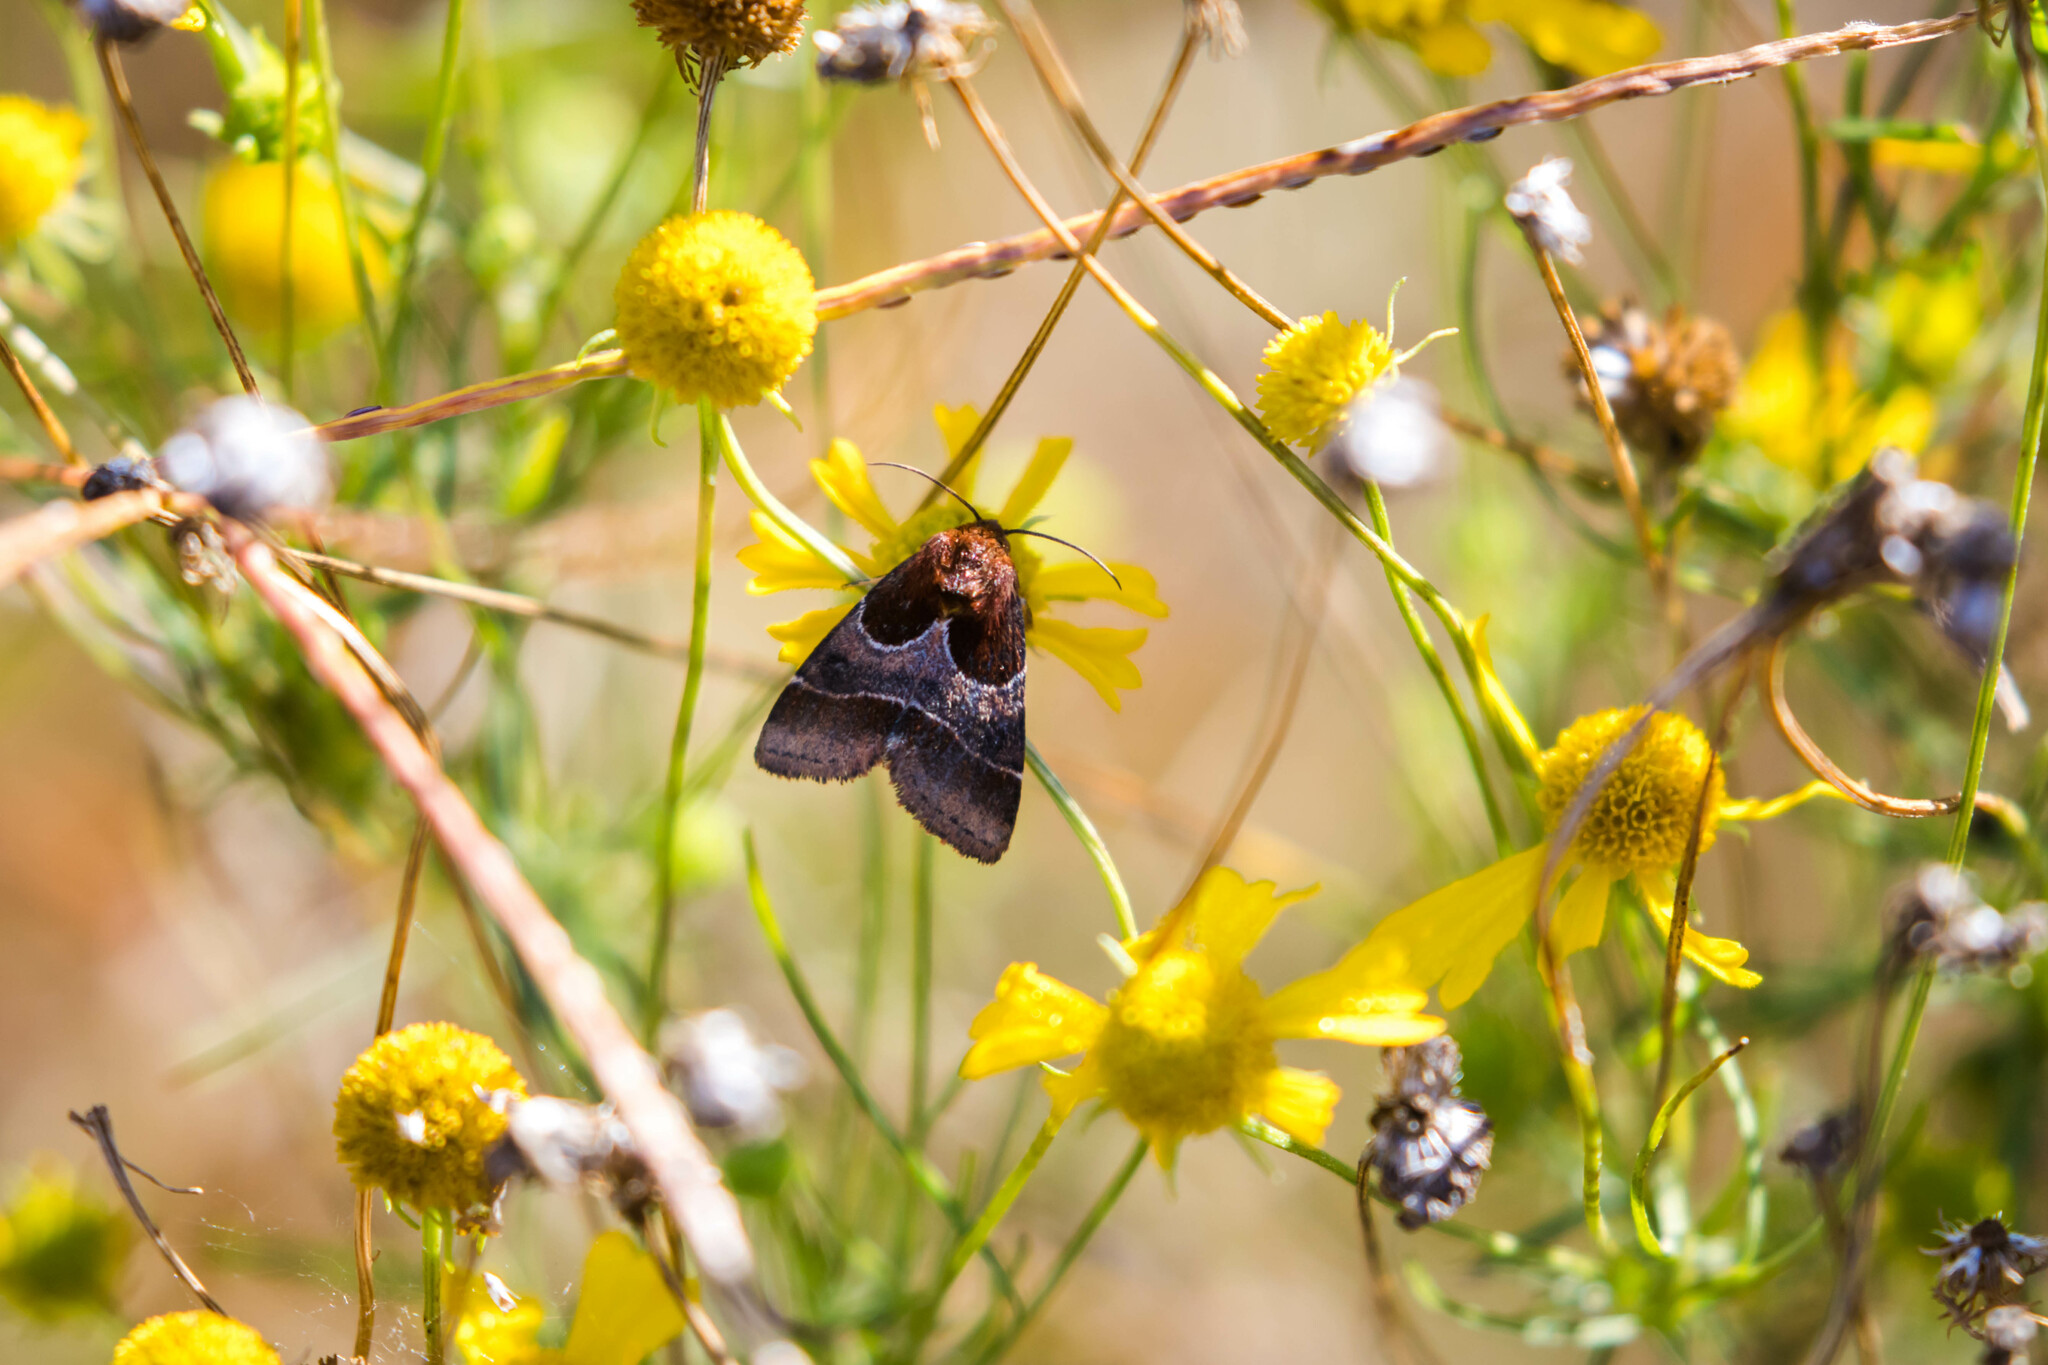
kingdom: Animalia
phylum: Arthropoda
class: Insecta
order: Lepidoptera
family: Noctuidae
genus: Schinia
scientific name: Schinia arcigera
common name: Arcigera flower moth
